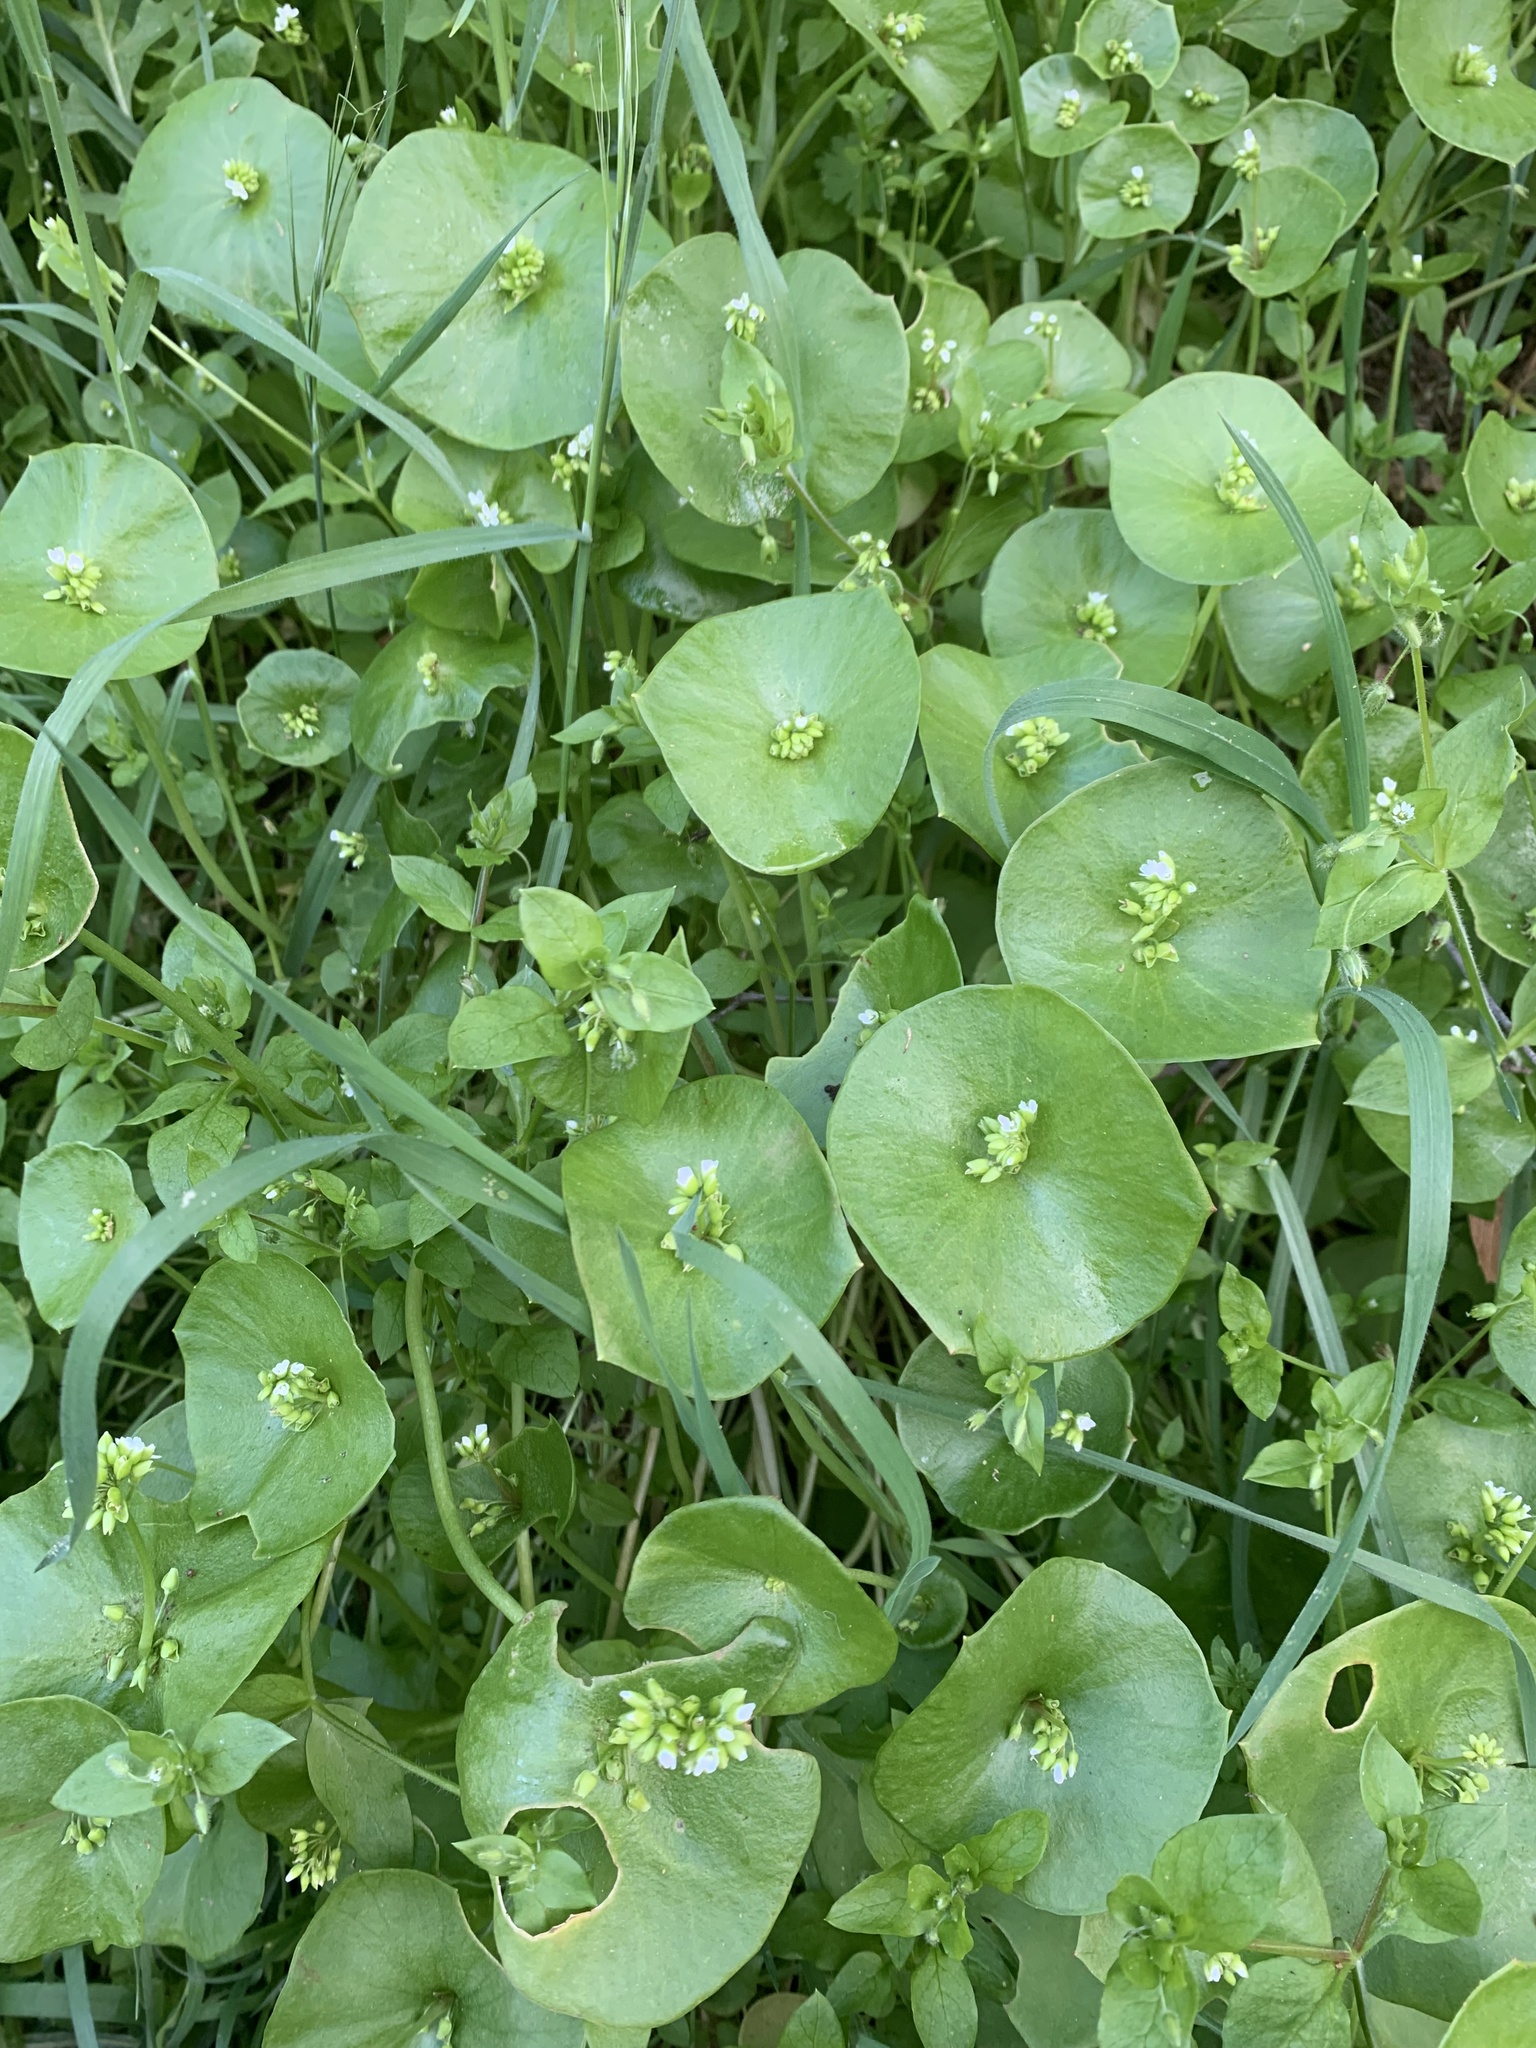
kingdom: Plantae
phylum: Tracheophyta
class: Magnoliopsida
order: Caryophyllales
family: Montiaceae
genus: Claytonia
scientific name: Claytonia perfoliata
